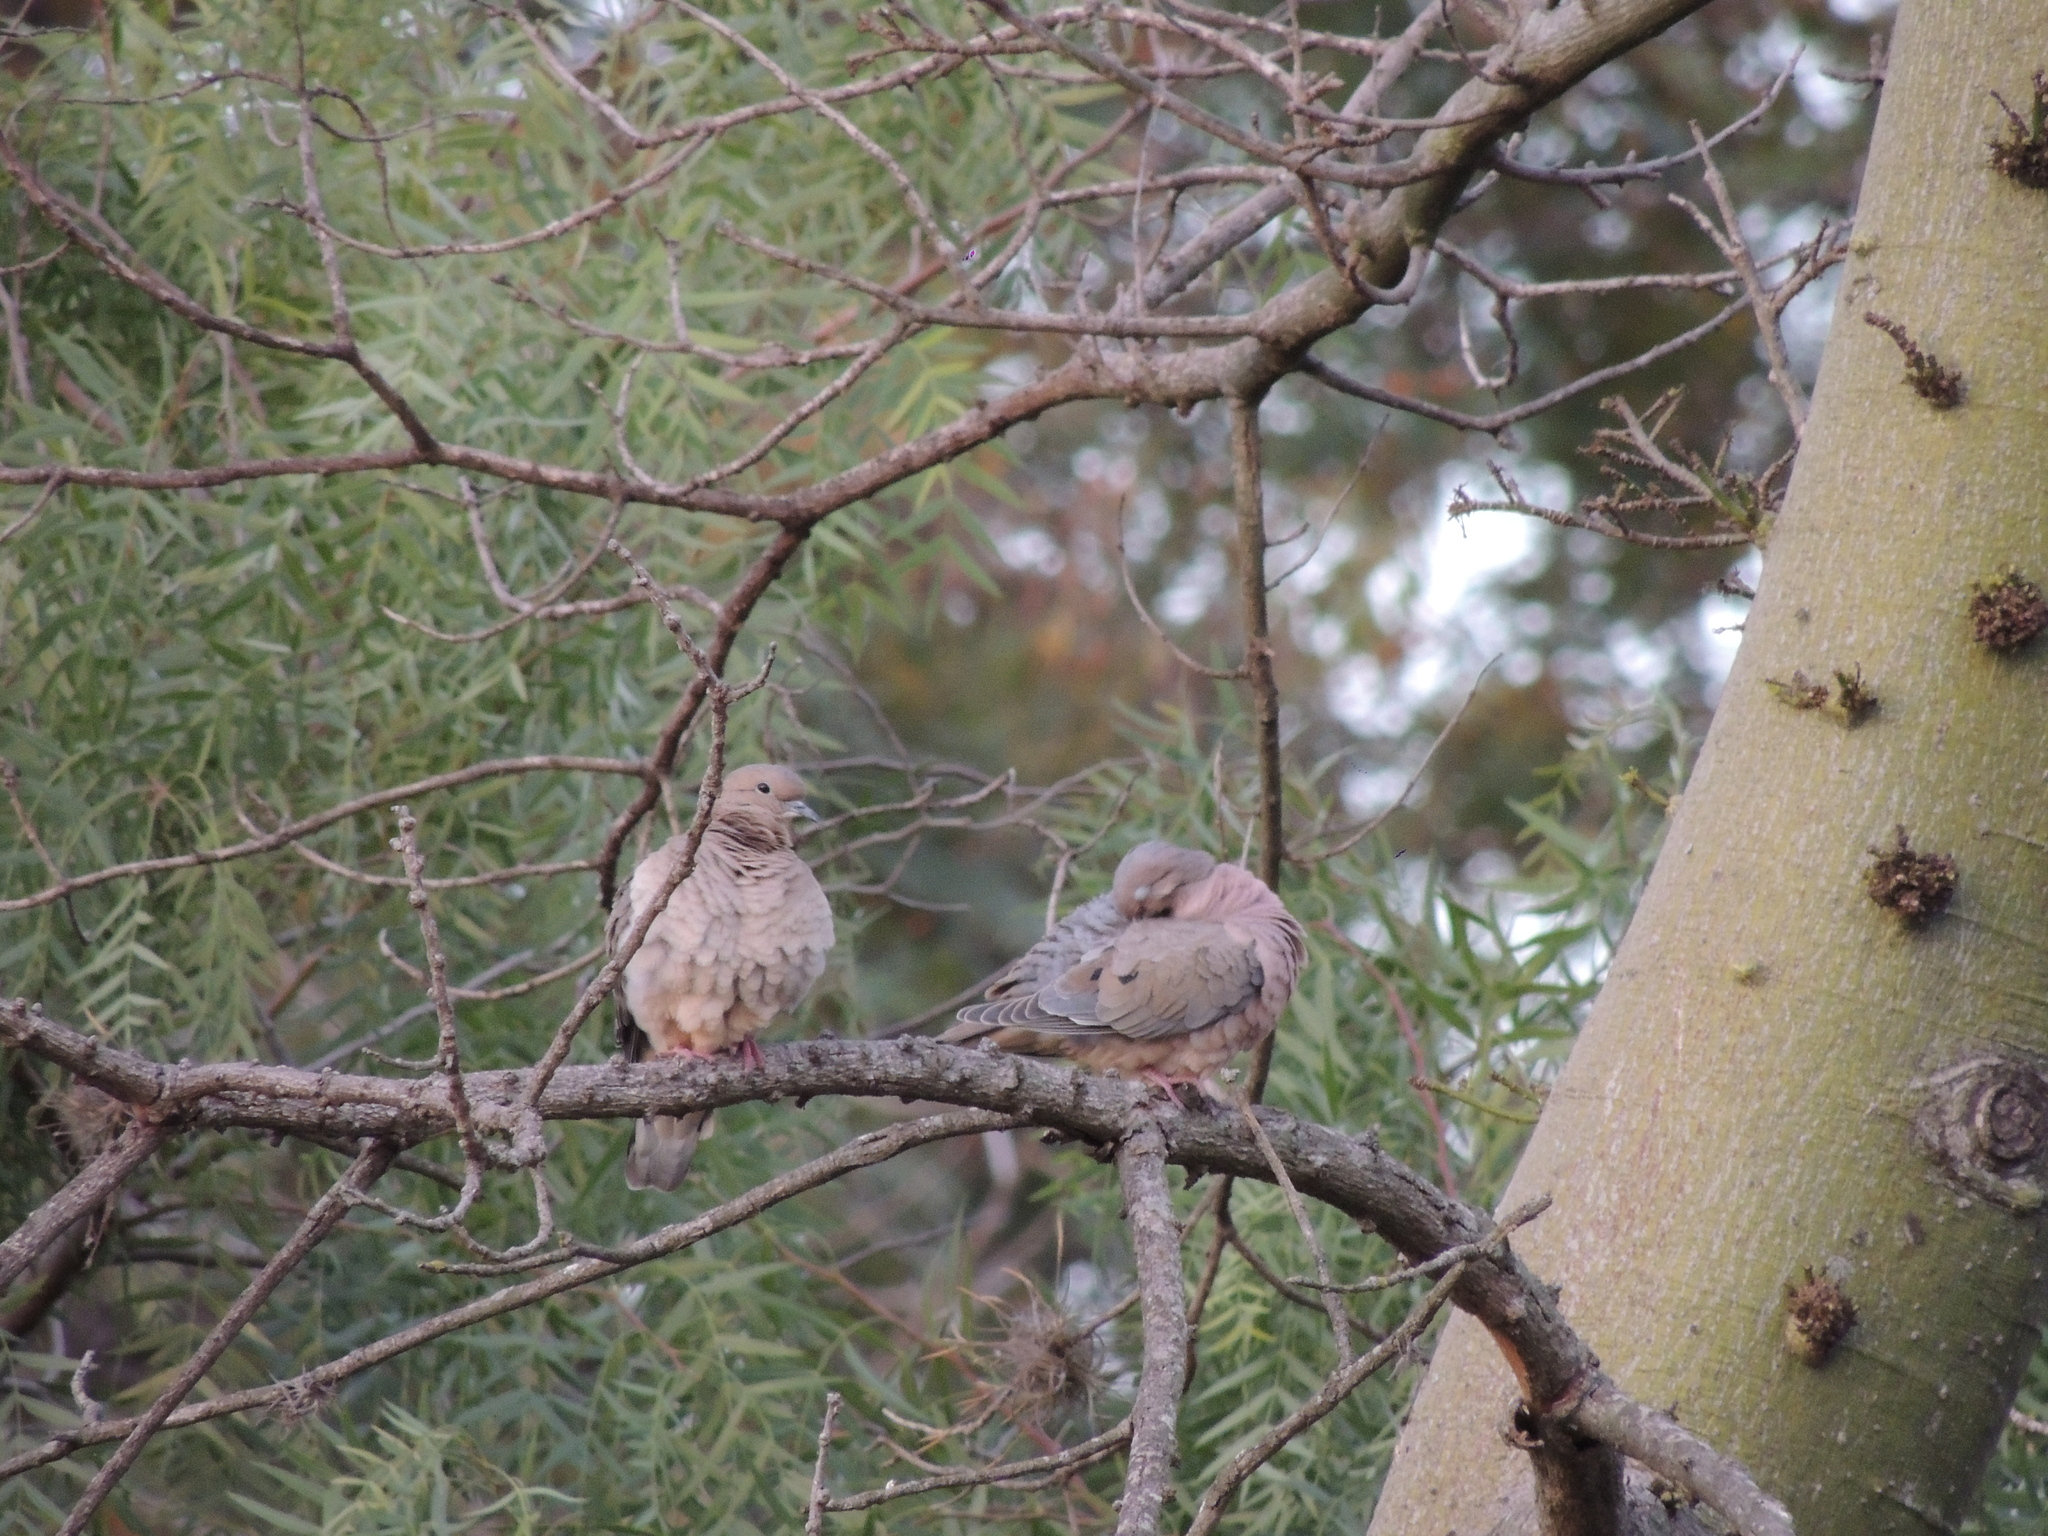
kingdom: Animalia
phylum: Chordata
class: Aves
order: Columbiformes
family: Columbidae
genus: Zenaida
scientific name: Zenaida auriculata
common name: Eared dove
